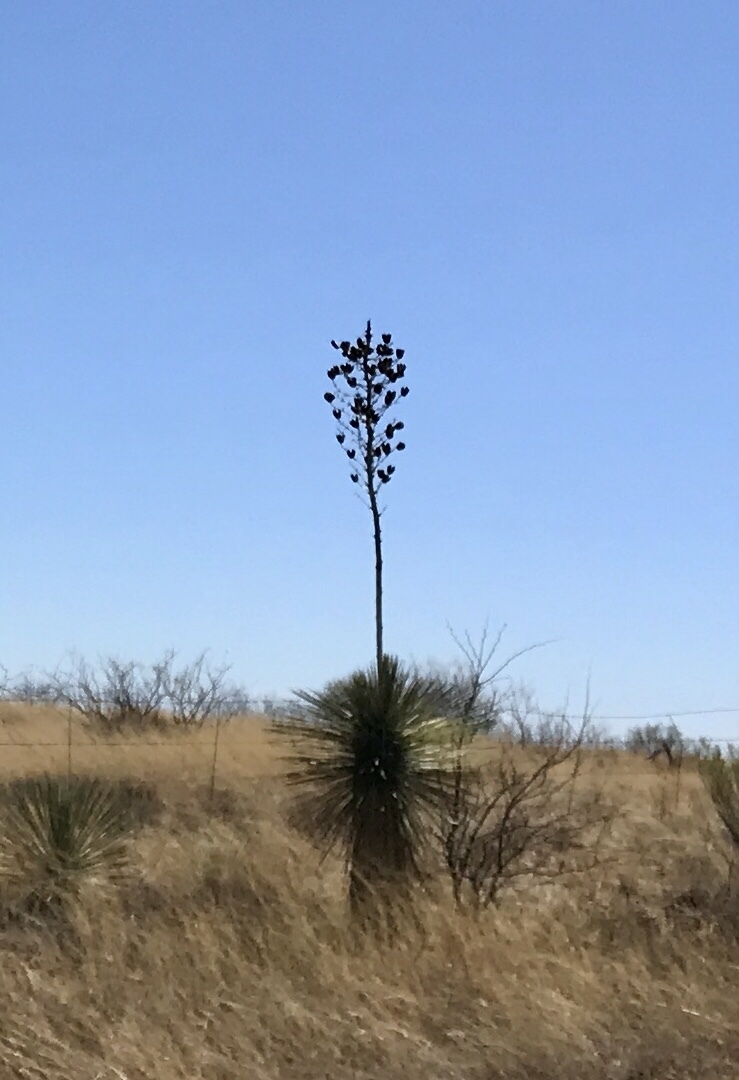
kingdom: Plantae
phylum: Tracheophyta
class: Liliopsida
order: Asparagales
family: Asparagaceae
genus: Yucca
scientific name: Yucca elata
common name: Palmella
